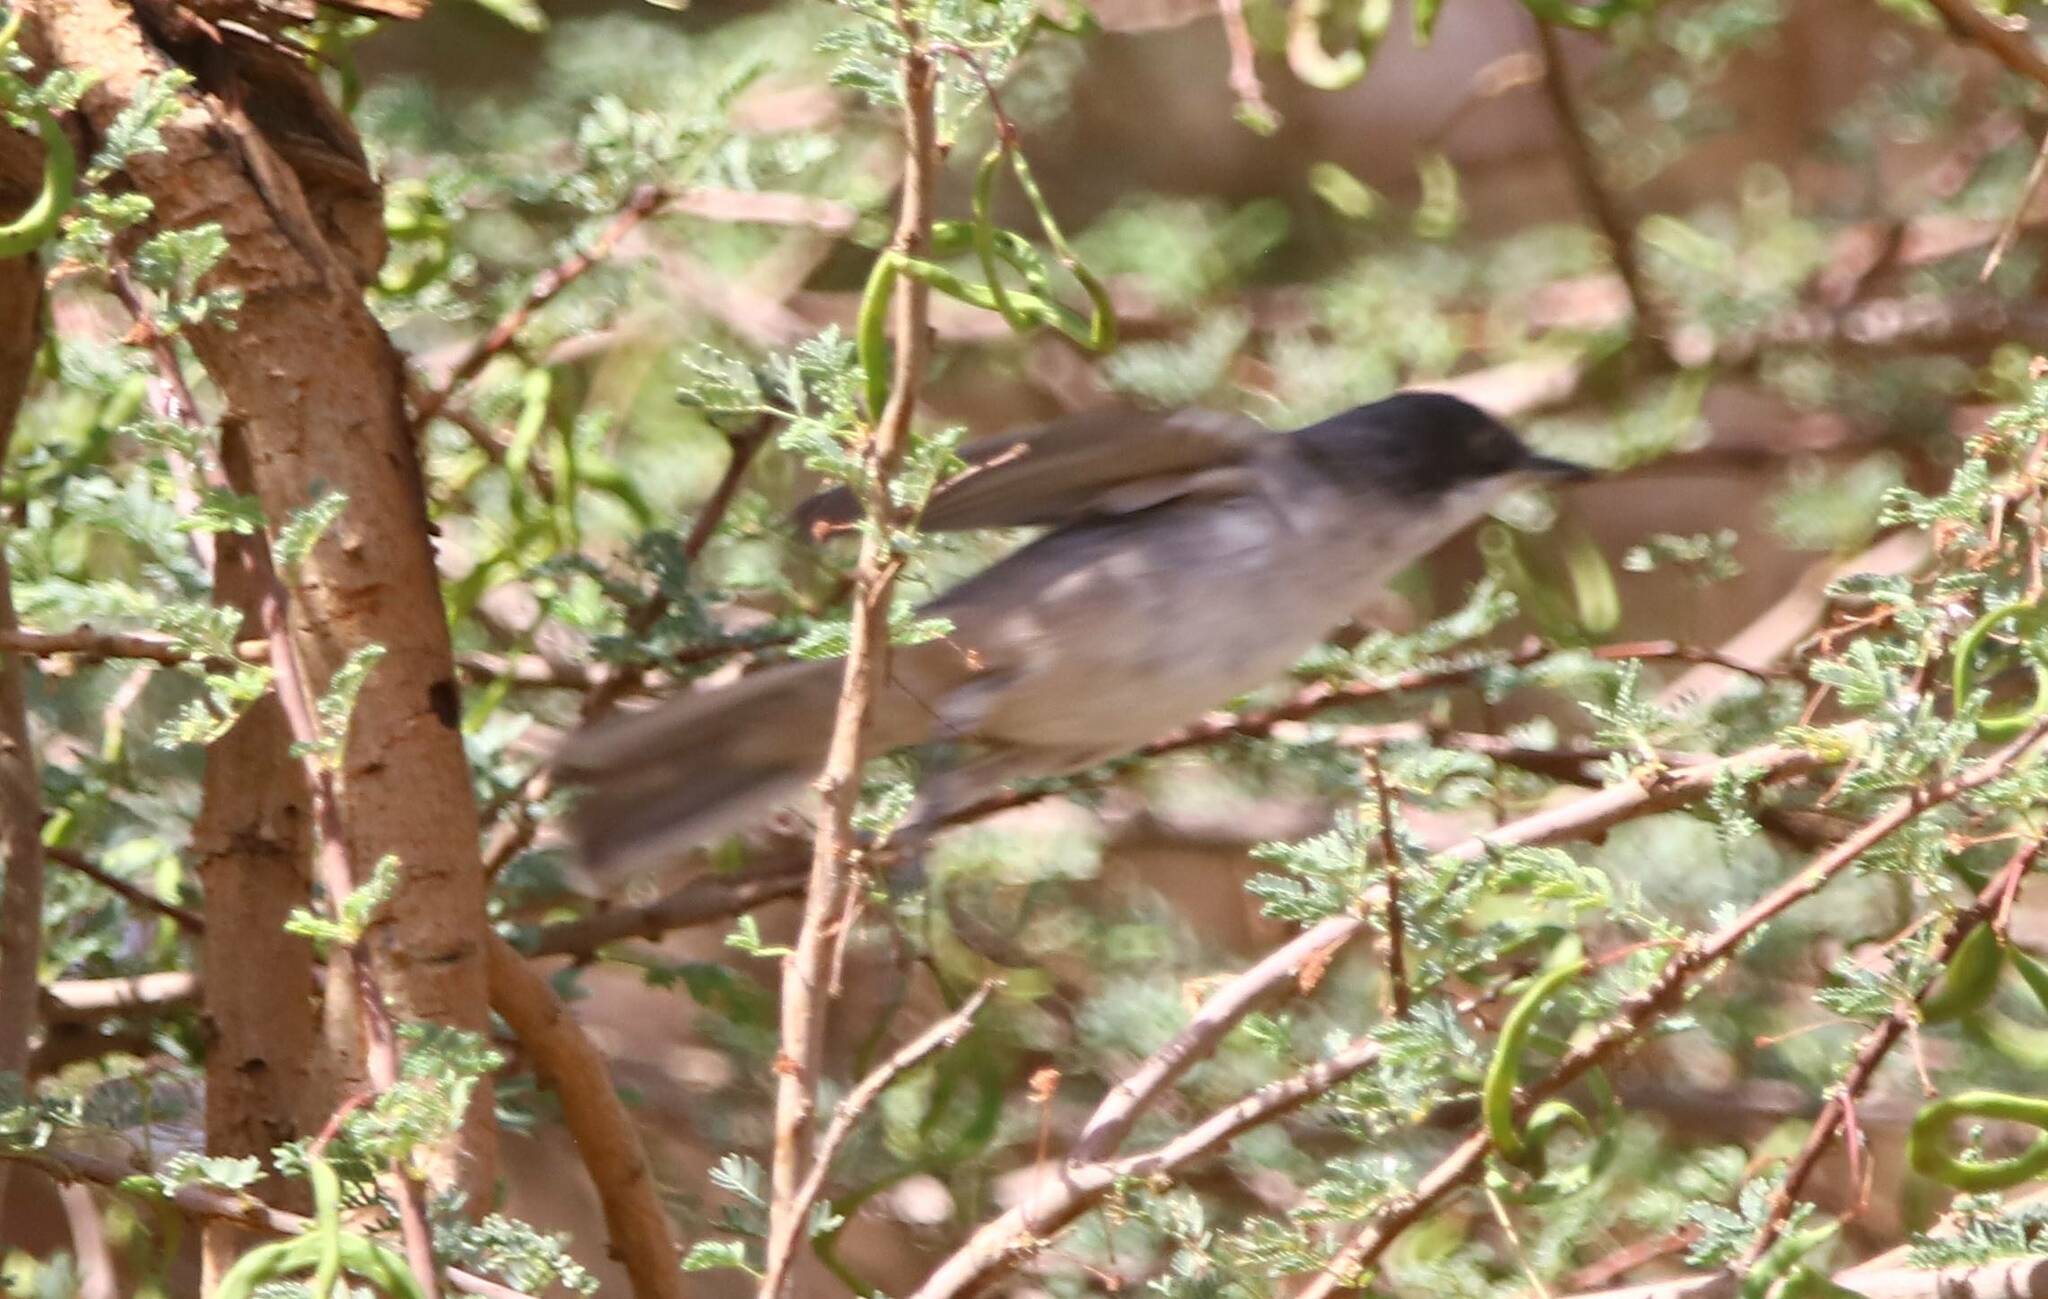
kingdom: Animalia
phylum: Chordata
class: Aves
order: Passeriformes
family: Sylviidae
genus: Sylvia
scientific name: Sylvia hortensis
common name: Orphean warbler
